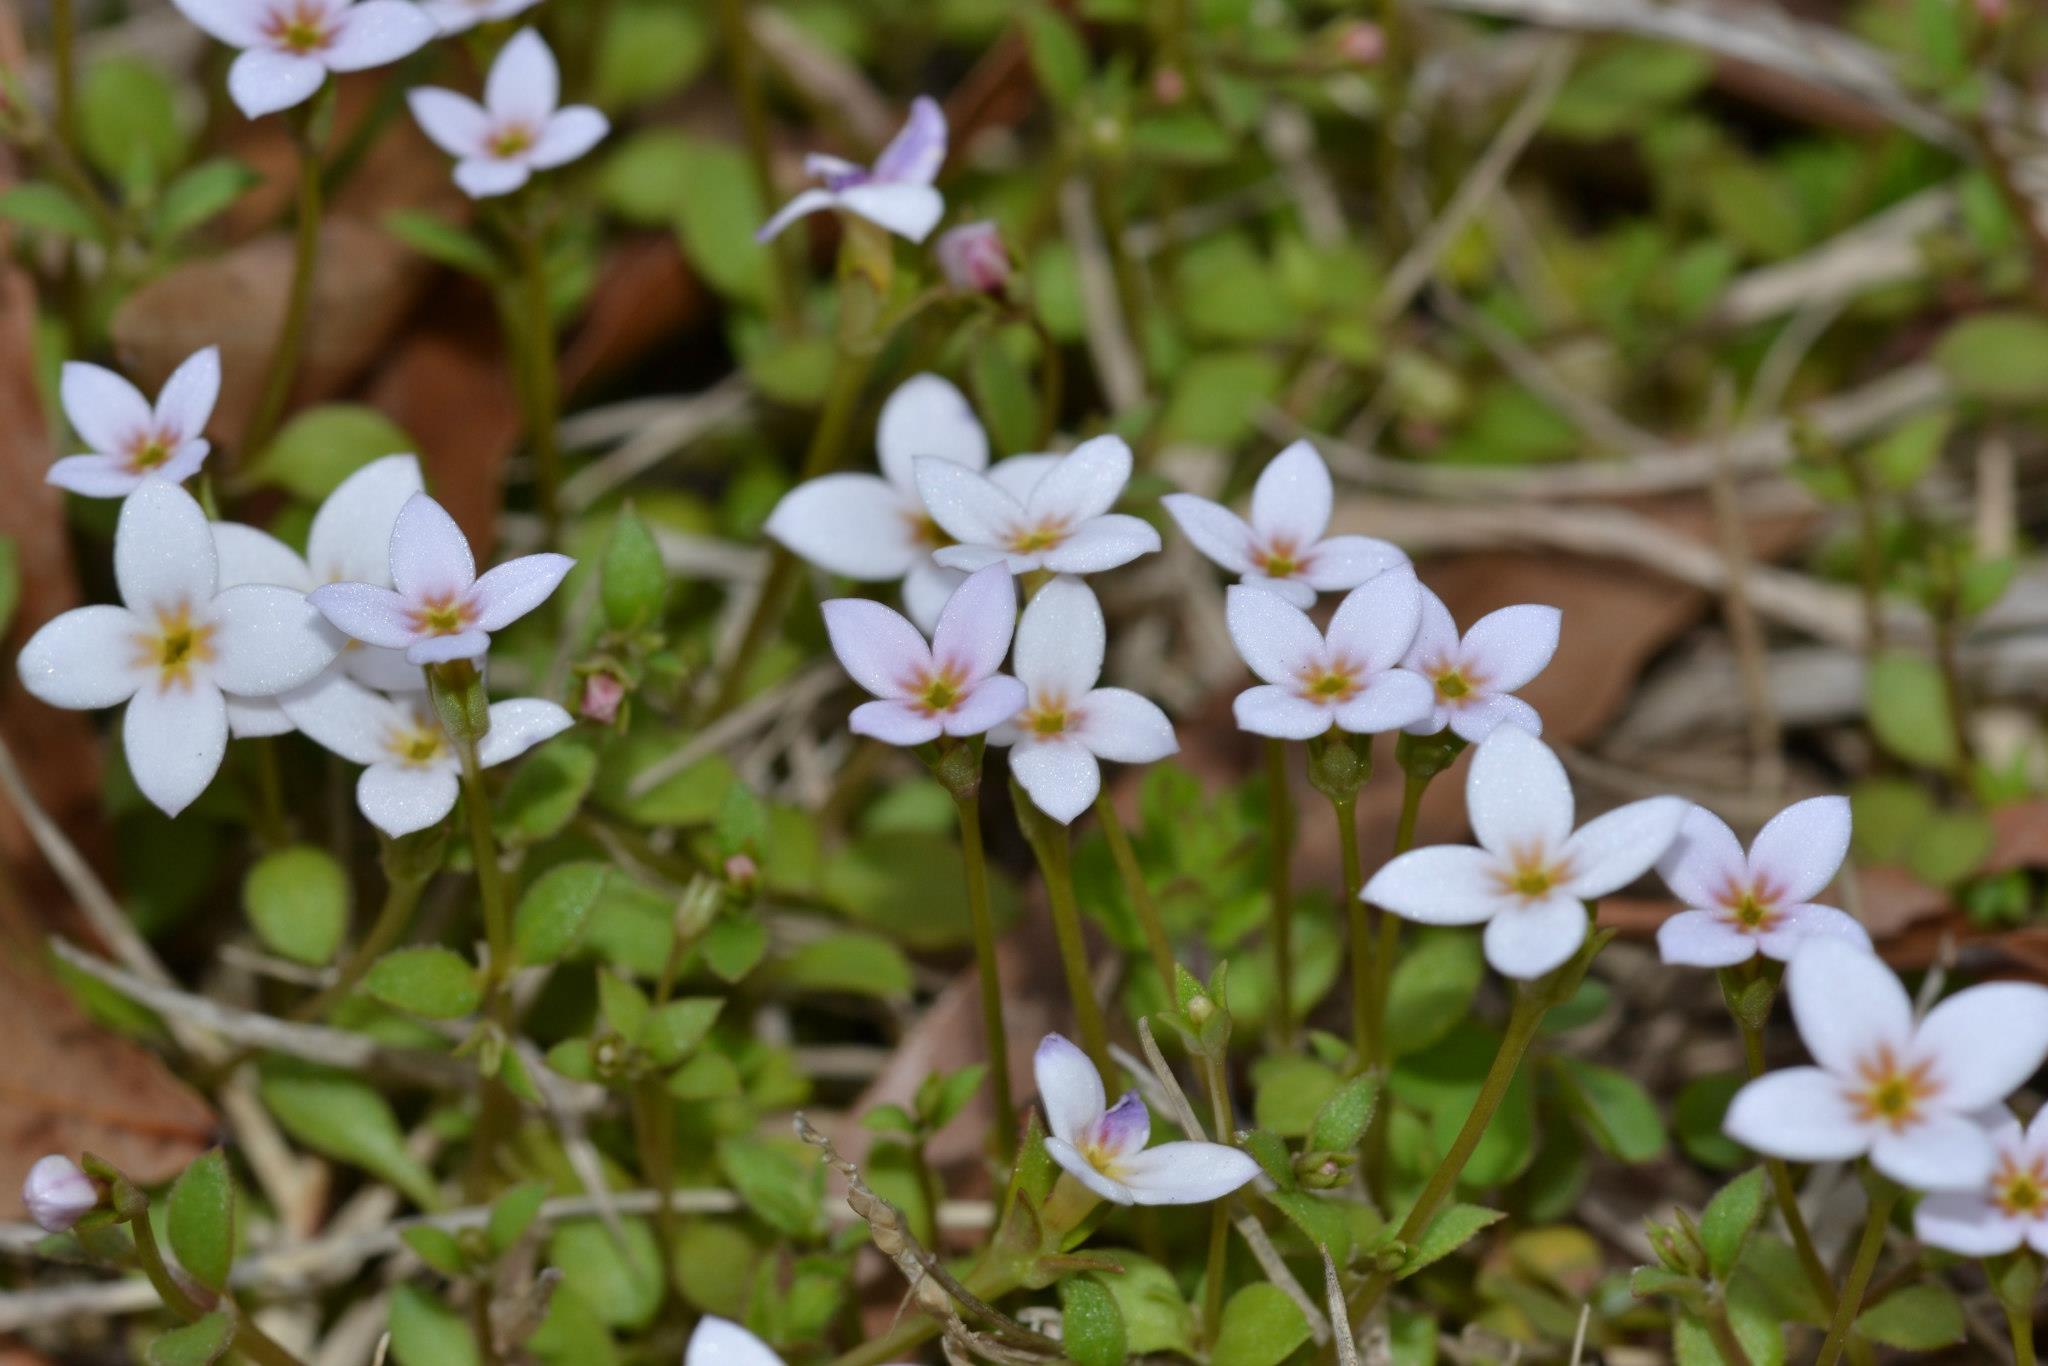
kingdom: Plantae
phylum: Tracheophyta
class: Magnoliopsida
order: Gentianales
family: Rubiaceae
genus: Houstonia
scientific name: Houstonia pusilla
